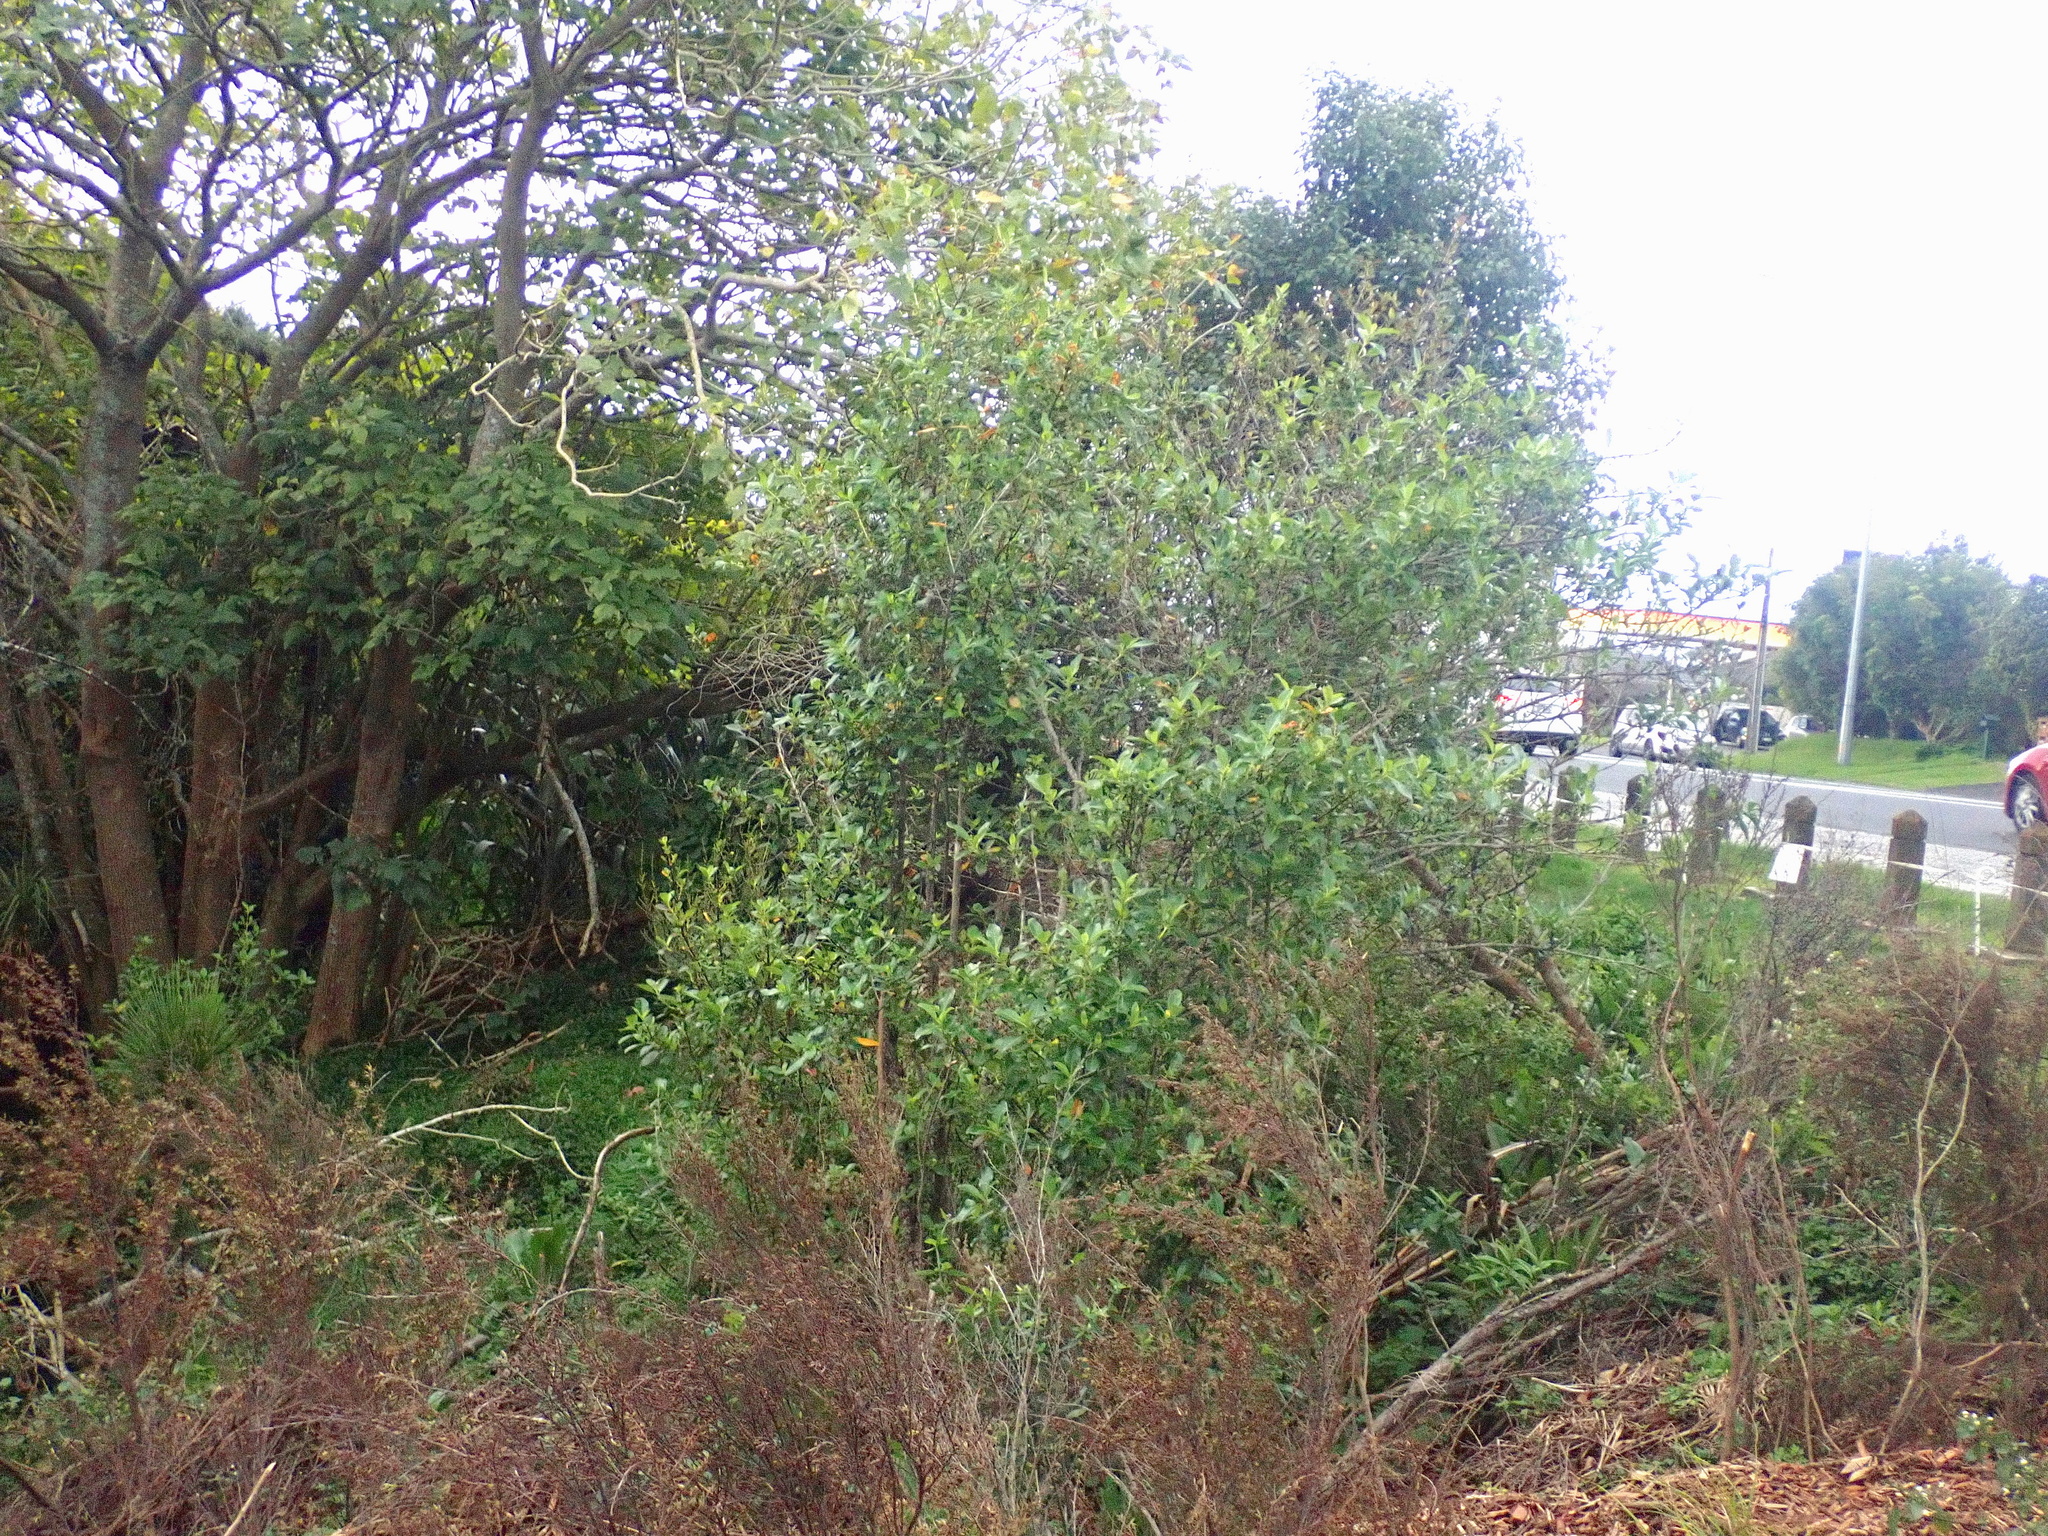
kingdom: Plantae
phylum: Tracheophyta
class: Magnoliopsida
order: Gentianales
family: Rubiaceae
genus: Coprosma
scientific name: Coprosma robusta
